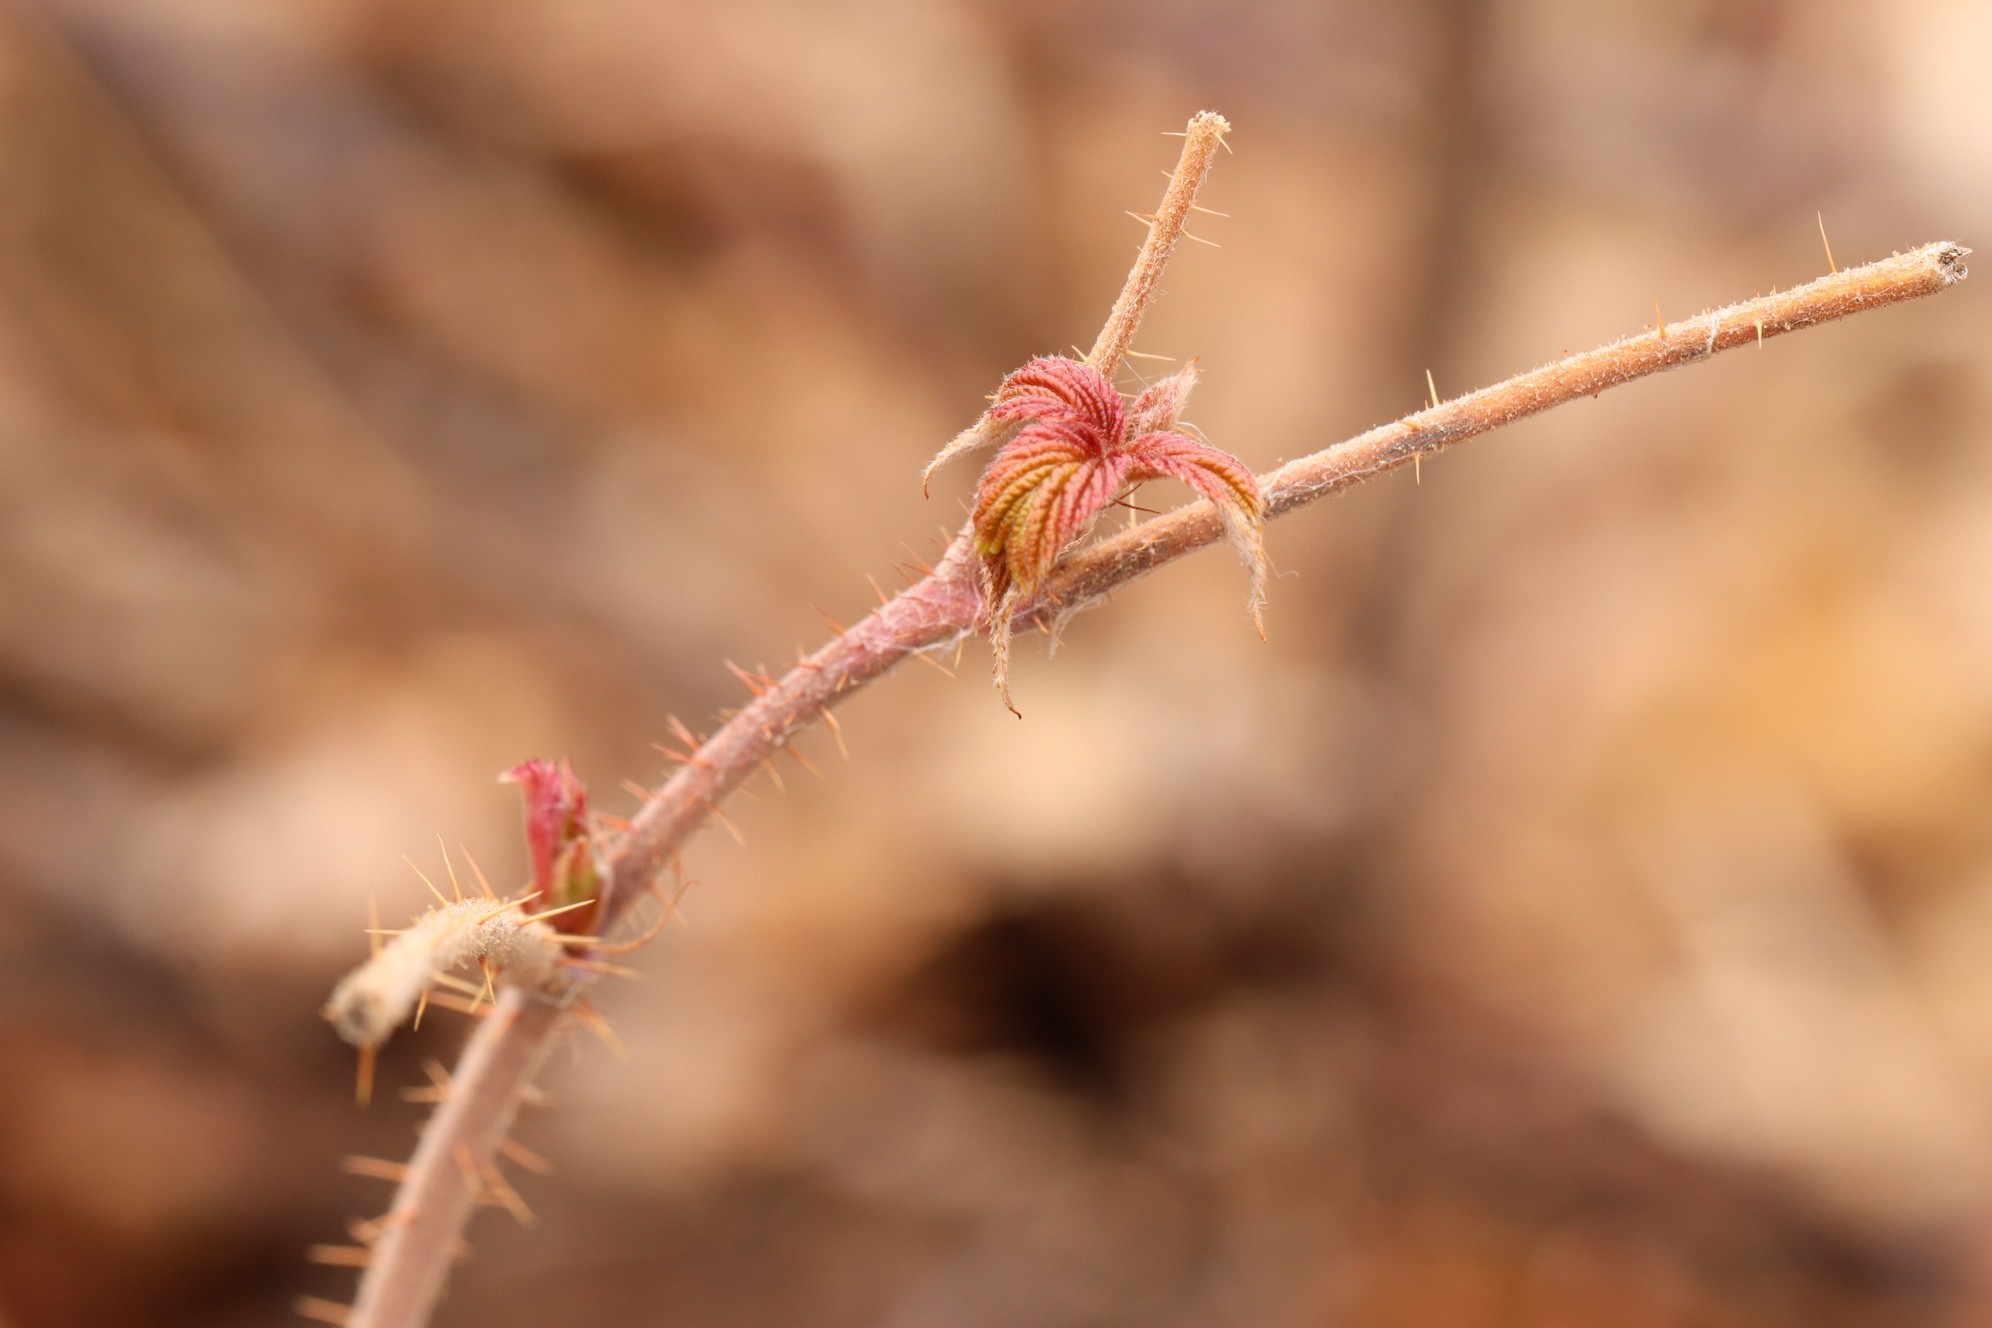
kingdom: Plantae
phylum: Tracheophyta
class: Magnoliopsida
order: Rosales
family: Rosaceae
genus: Rubus
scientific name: Rubus sachalinensis
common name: Red raspberry
